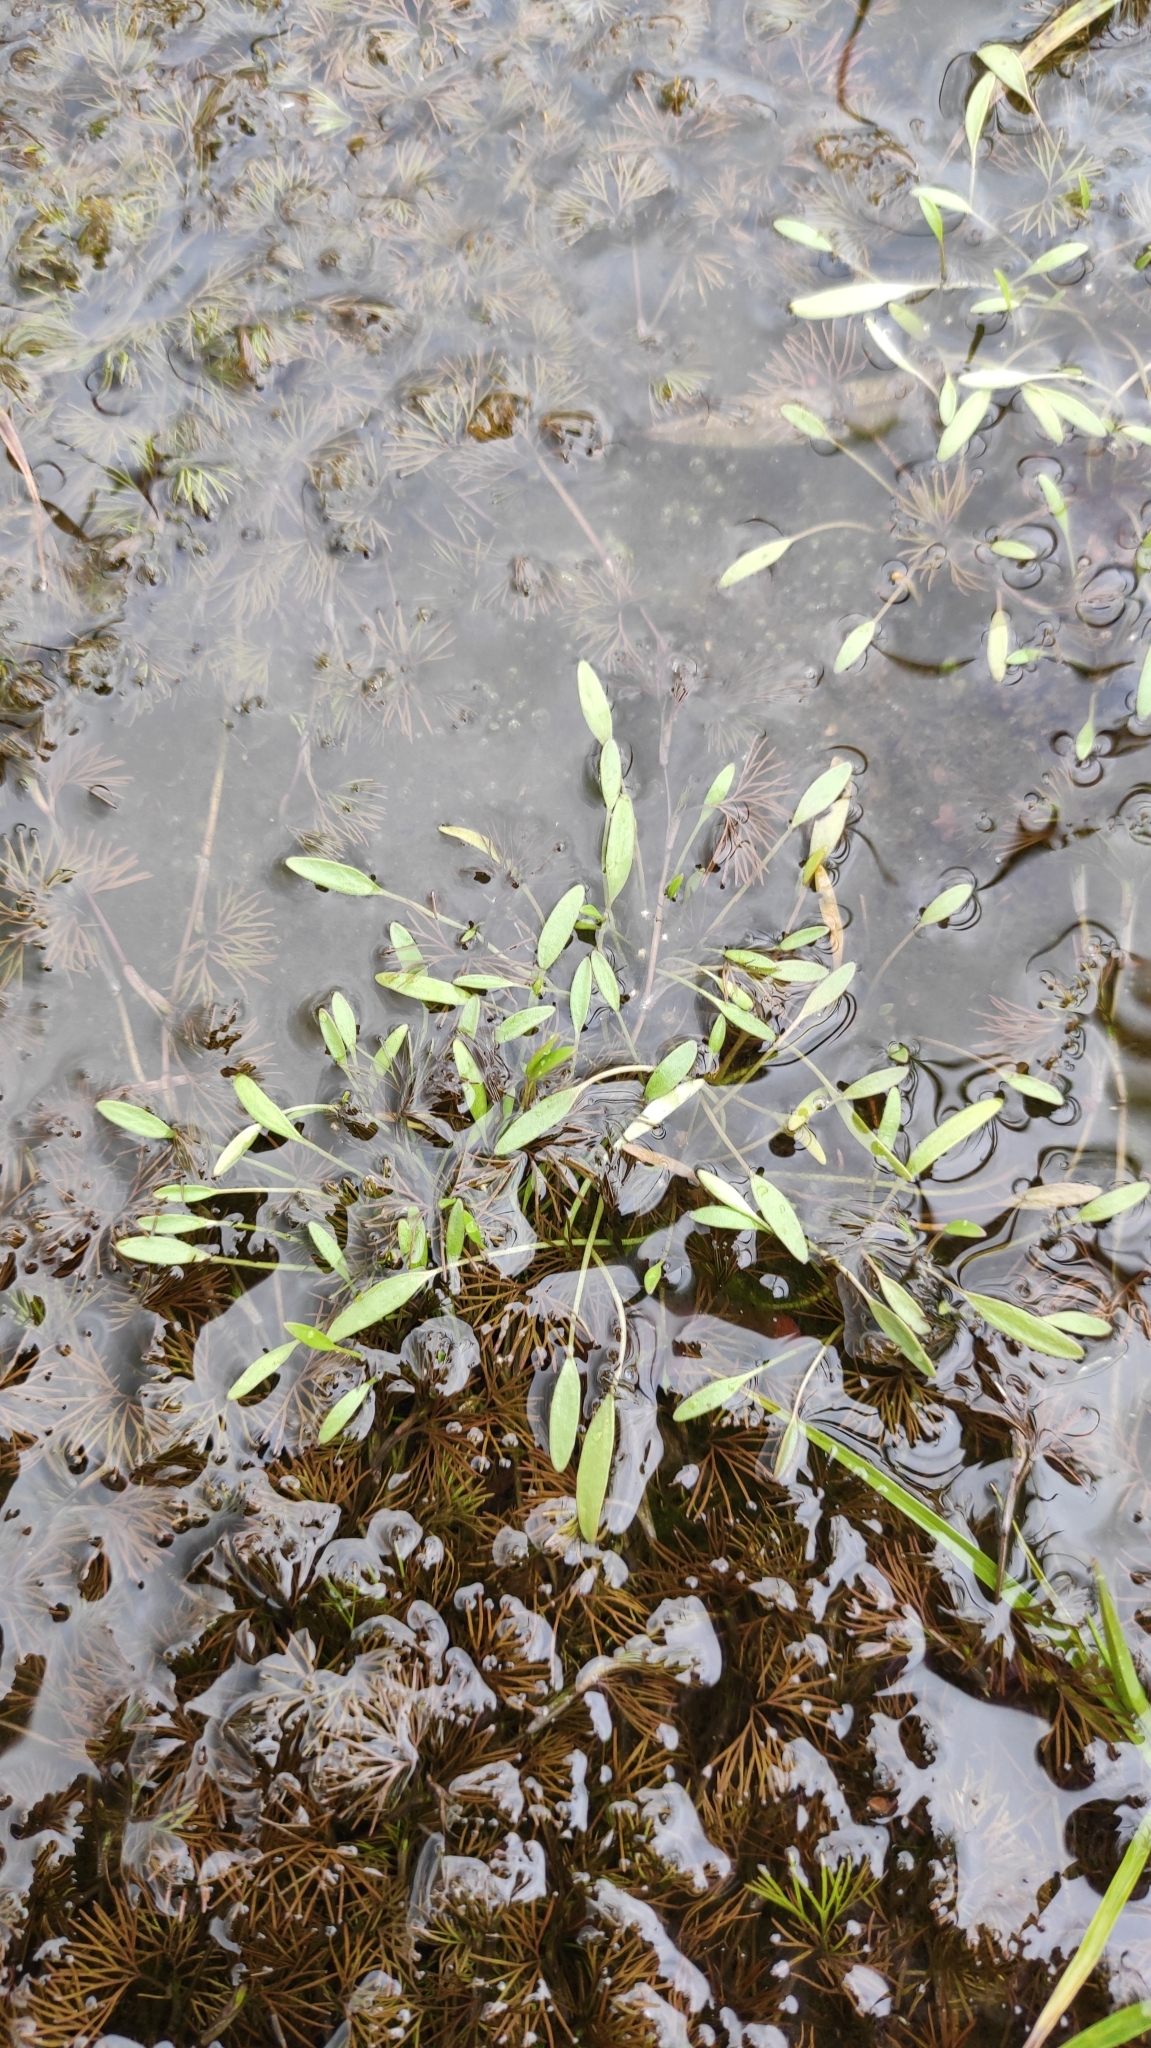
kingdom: Plantae
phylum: Tracheophyta
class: Magnoliopsida
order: Lamiales
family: Scrophulariaceae
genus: Limosella
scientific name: Limosella aquatica
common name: Mudwort
